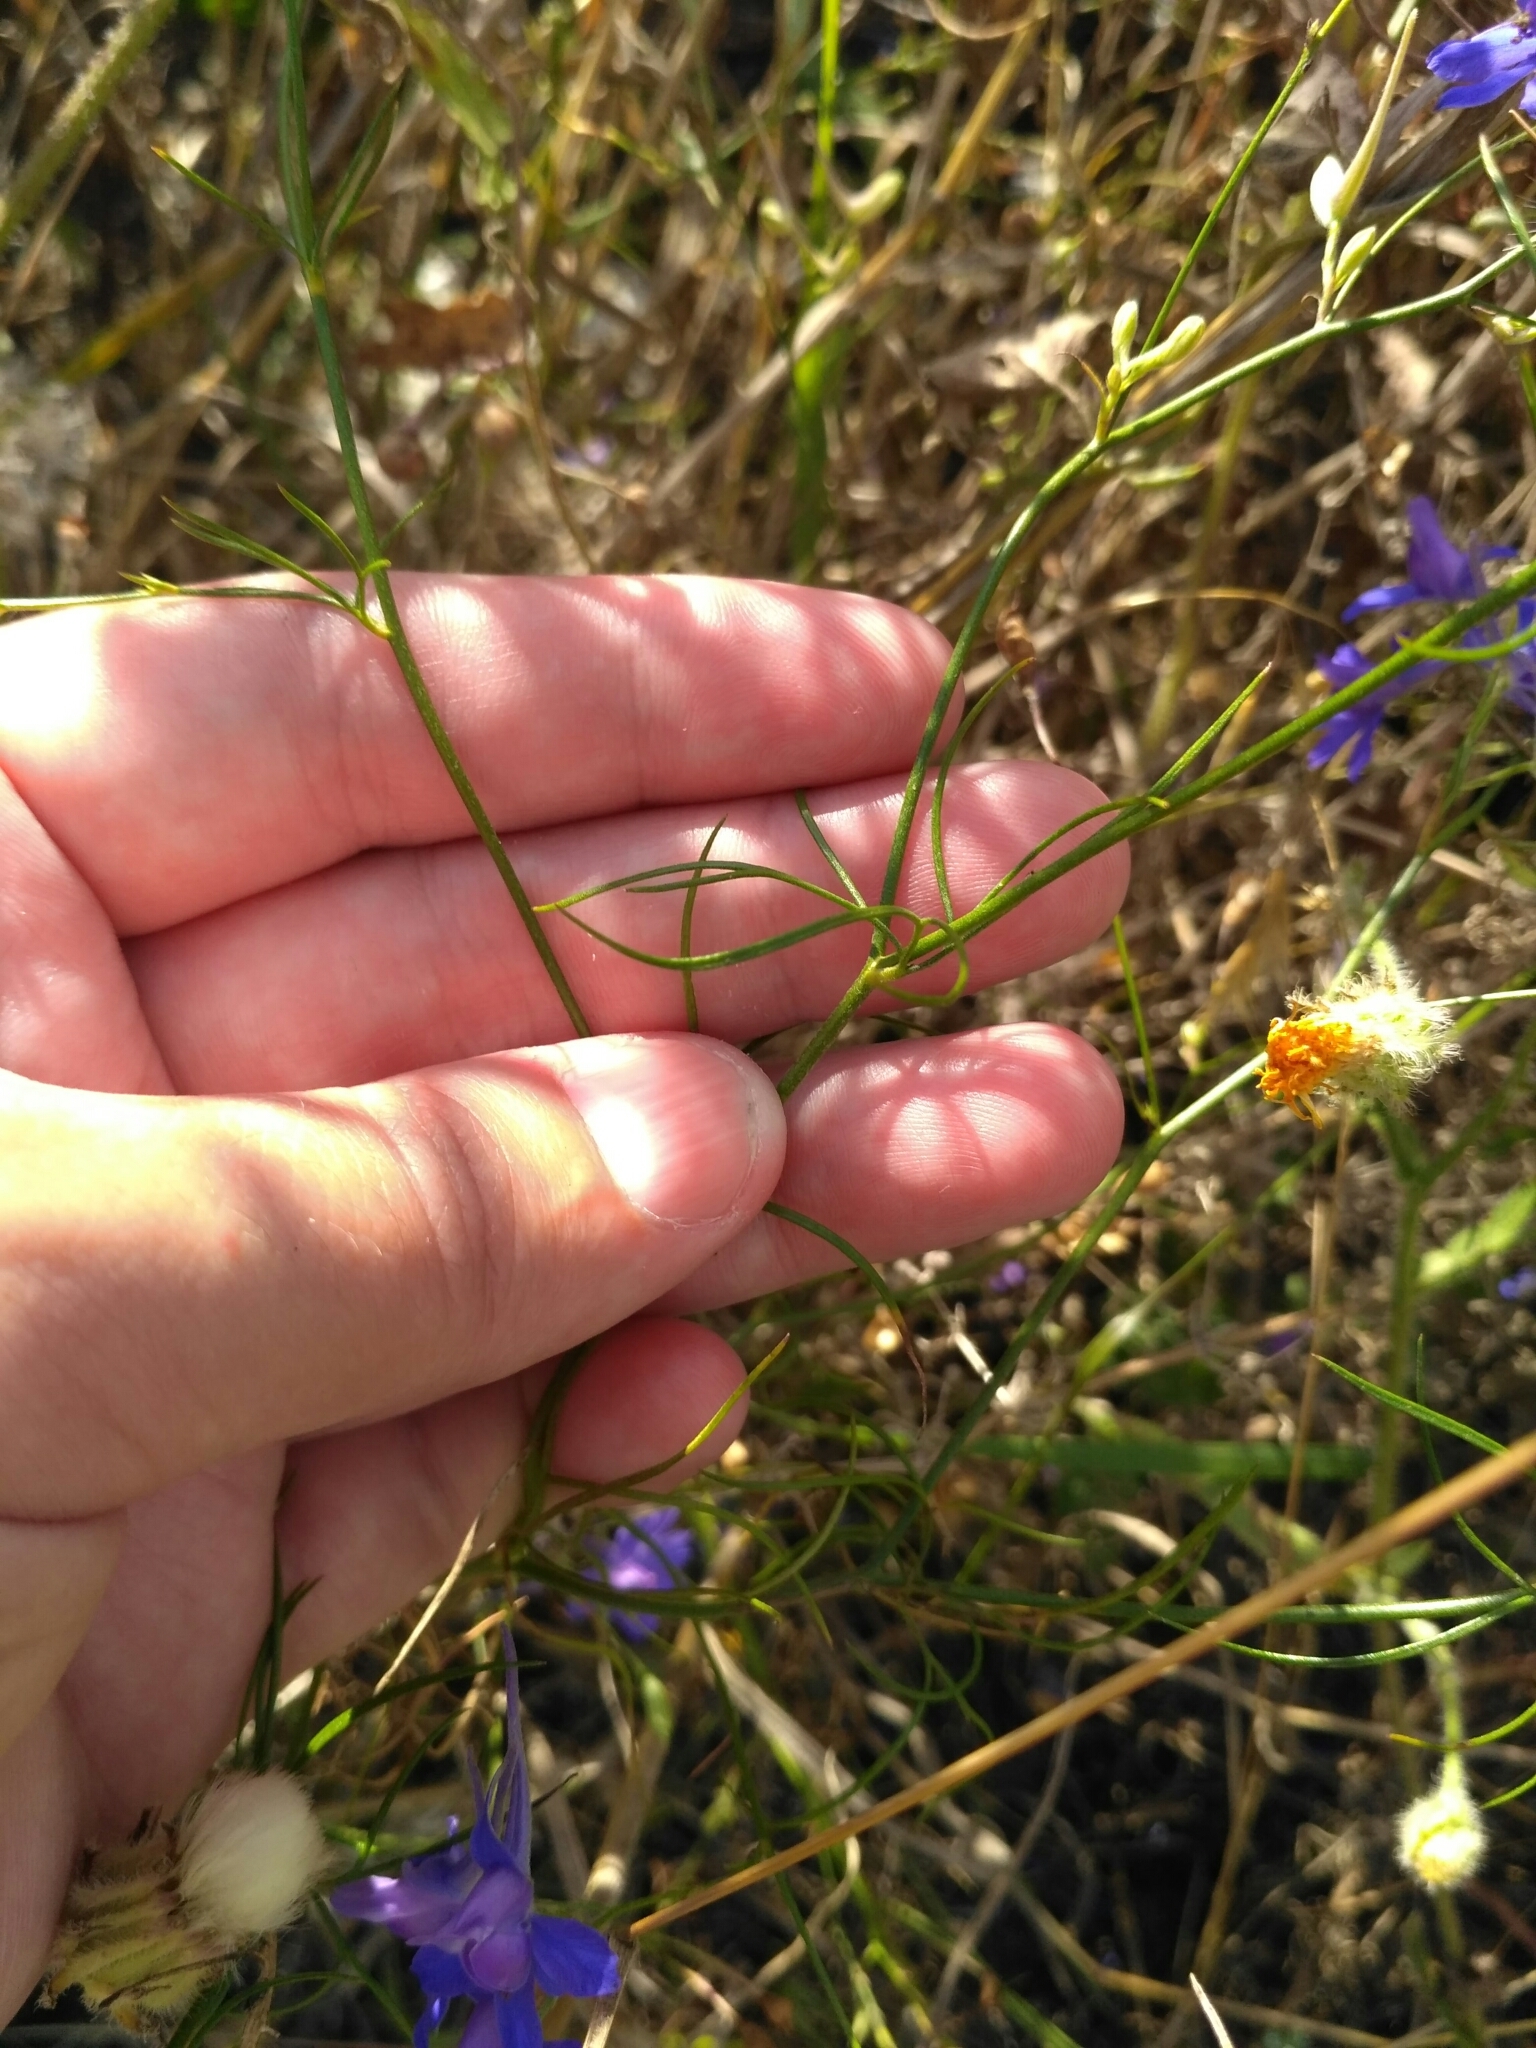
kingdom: Plantae
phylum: Tracheophyta
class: Magnoliopsida
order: Ranunculales
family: Ranunculaceae
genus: Delphinium
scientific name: Delphinium consolida
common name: Branching larkspur
